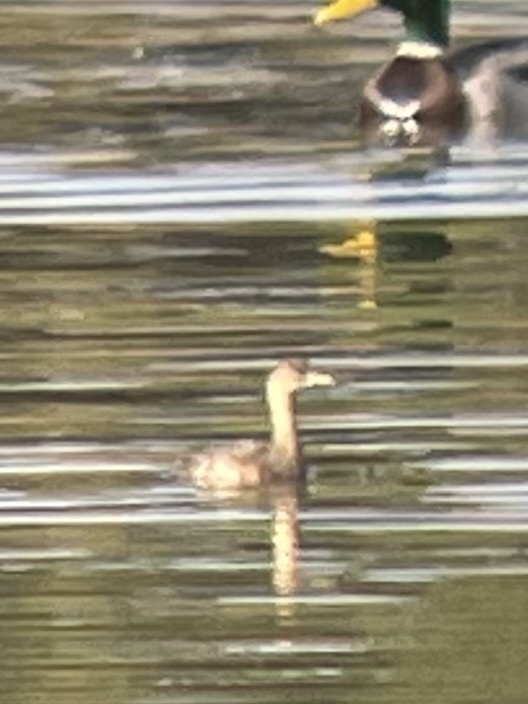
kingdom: Animalia
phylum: Chordata
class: Aves
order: Podicipediformes
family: Podicipedidae
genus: Tachybaptus
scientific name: Tachybaptus ruficollis
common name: Little grebe
